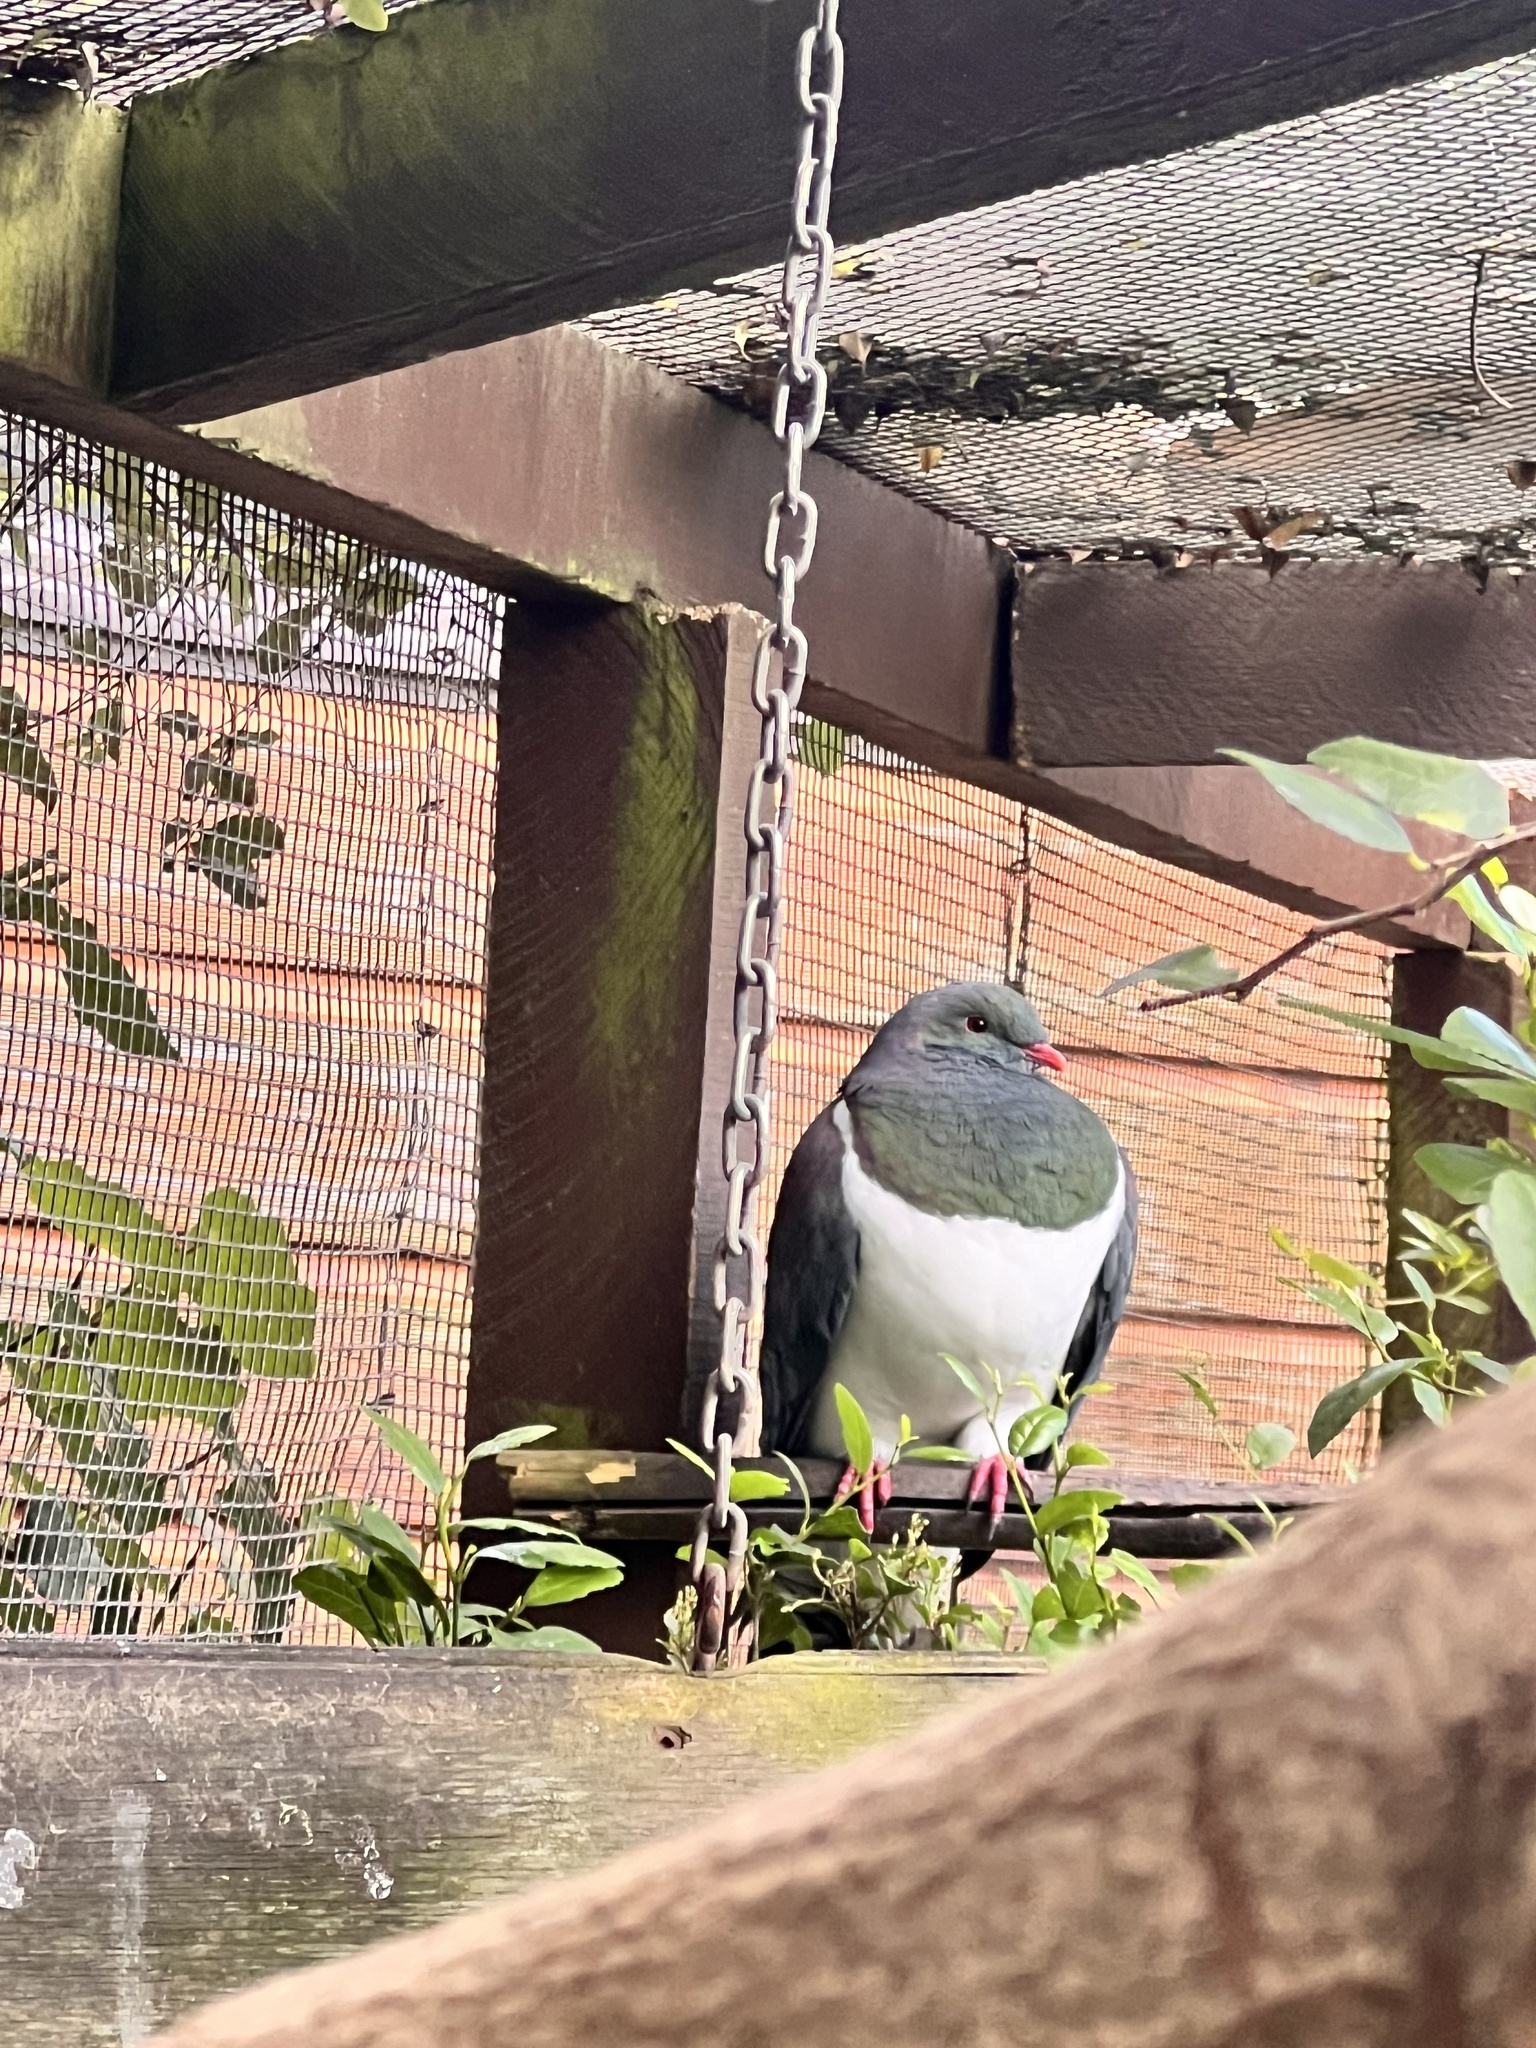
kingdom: Animalia
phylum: Chordata
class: Aves
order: Columbiformes
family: Columbidae
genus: Hemiphaga
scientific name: Hemiphaga novaeseelandiae
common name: New zealand pigeon
